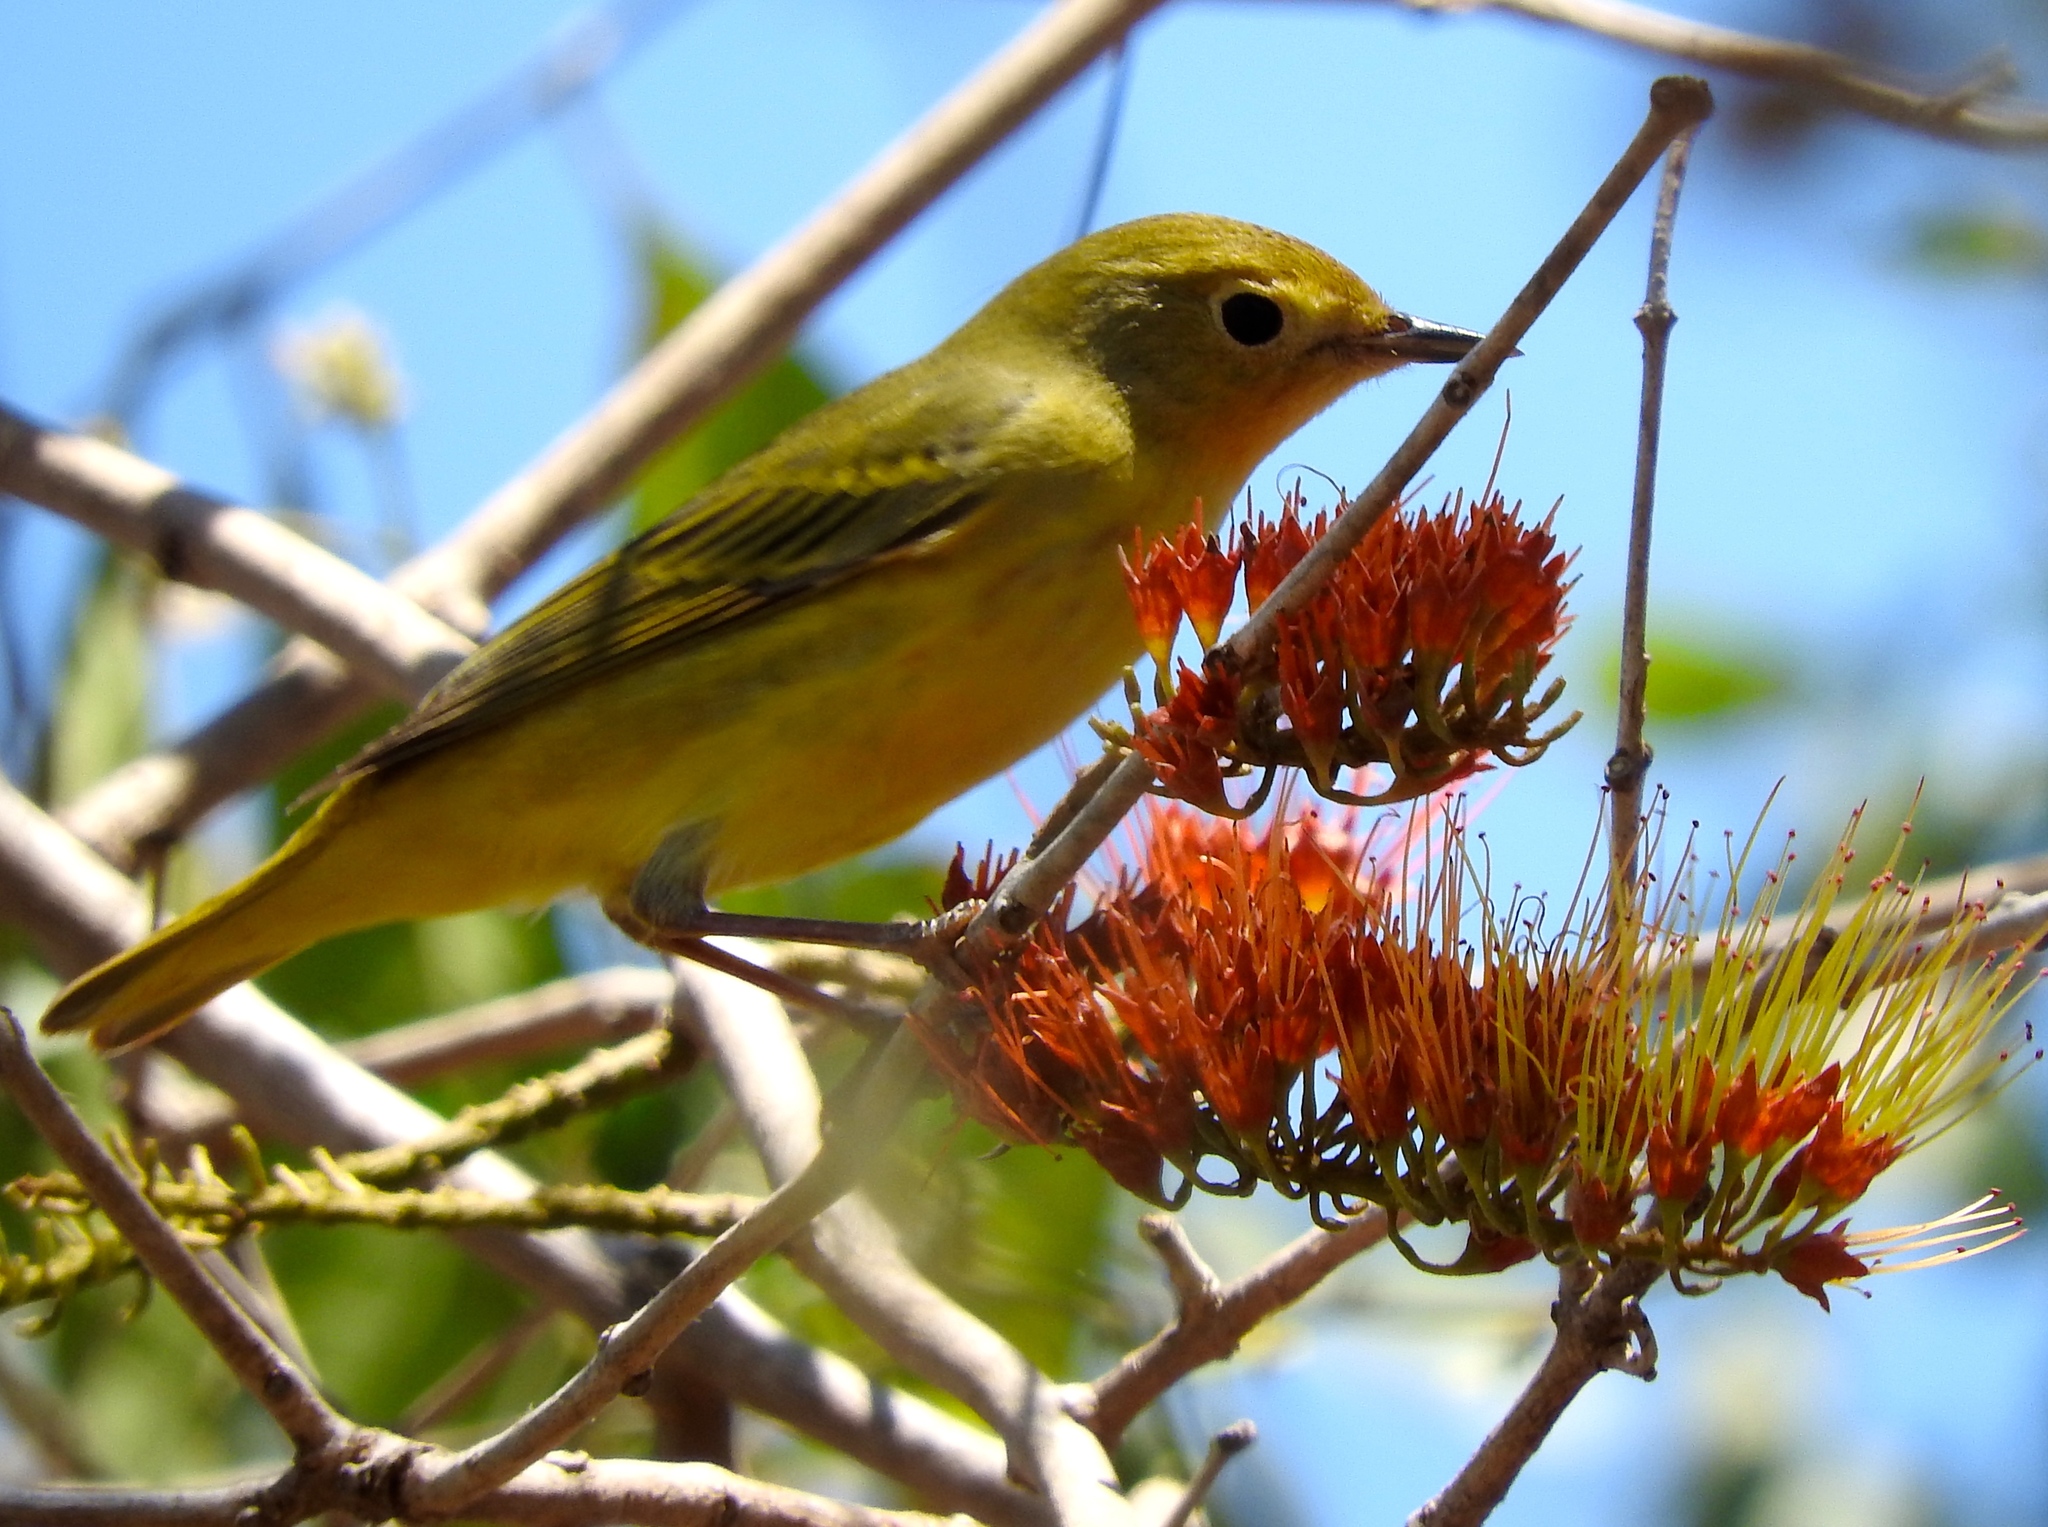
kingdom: Animalia
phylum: Chordata
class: Aves
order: Passeriformes
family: Parulidae
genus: Setophaga
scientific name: Setophaga petechia
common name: Yellow warbler
